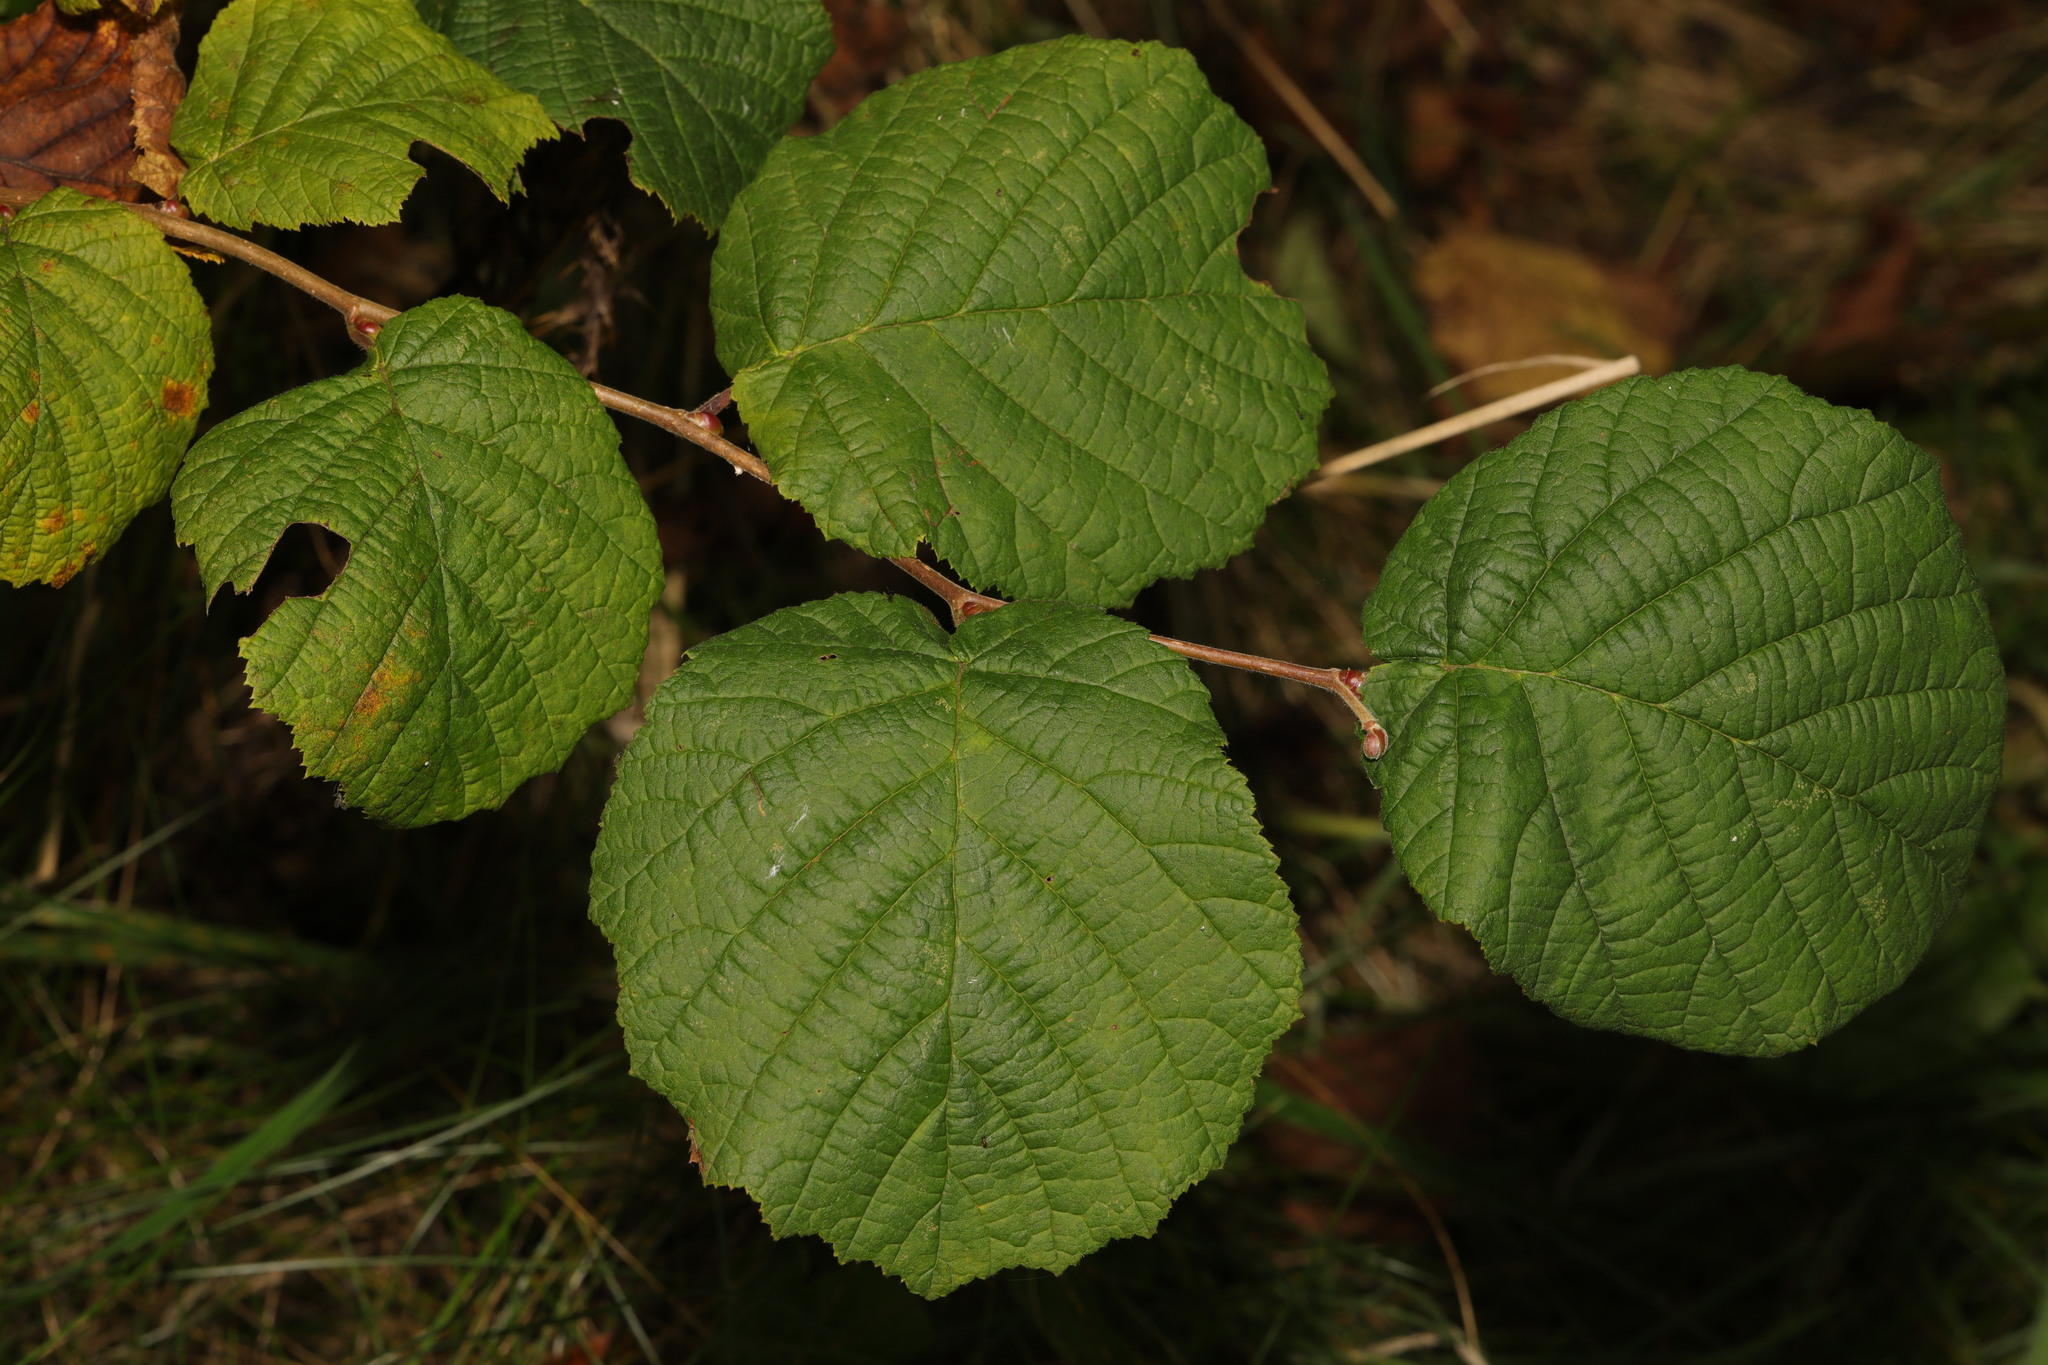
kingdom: Plantae
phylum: Tracheophyta
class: Magnoliopsida
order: Fagales
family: Betulaceae
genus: Corylus
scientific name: Corylus avellana
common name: European hazel
